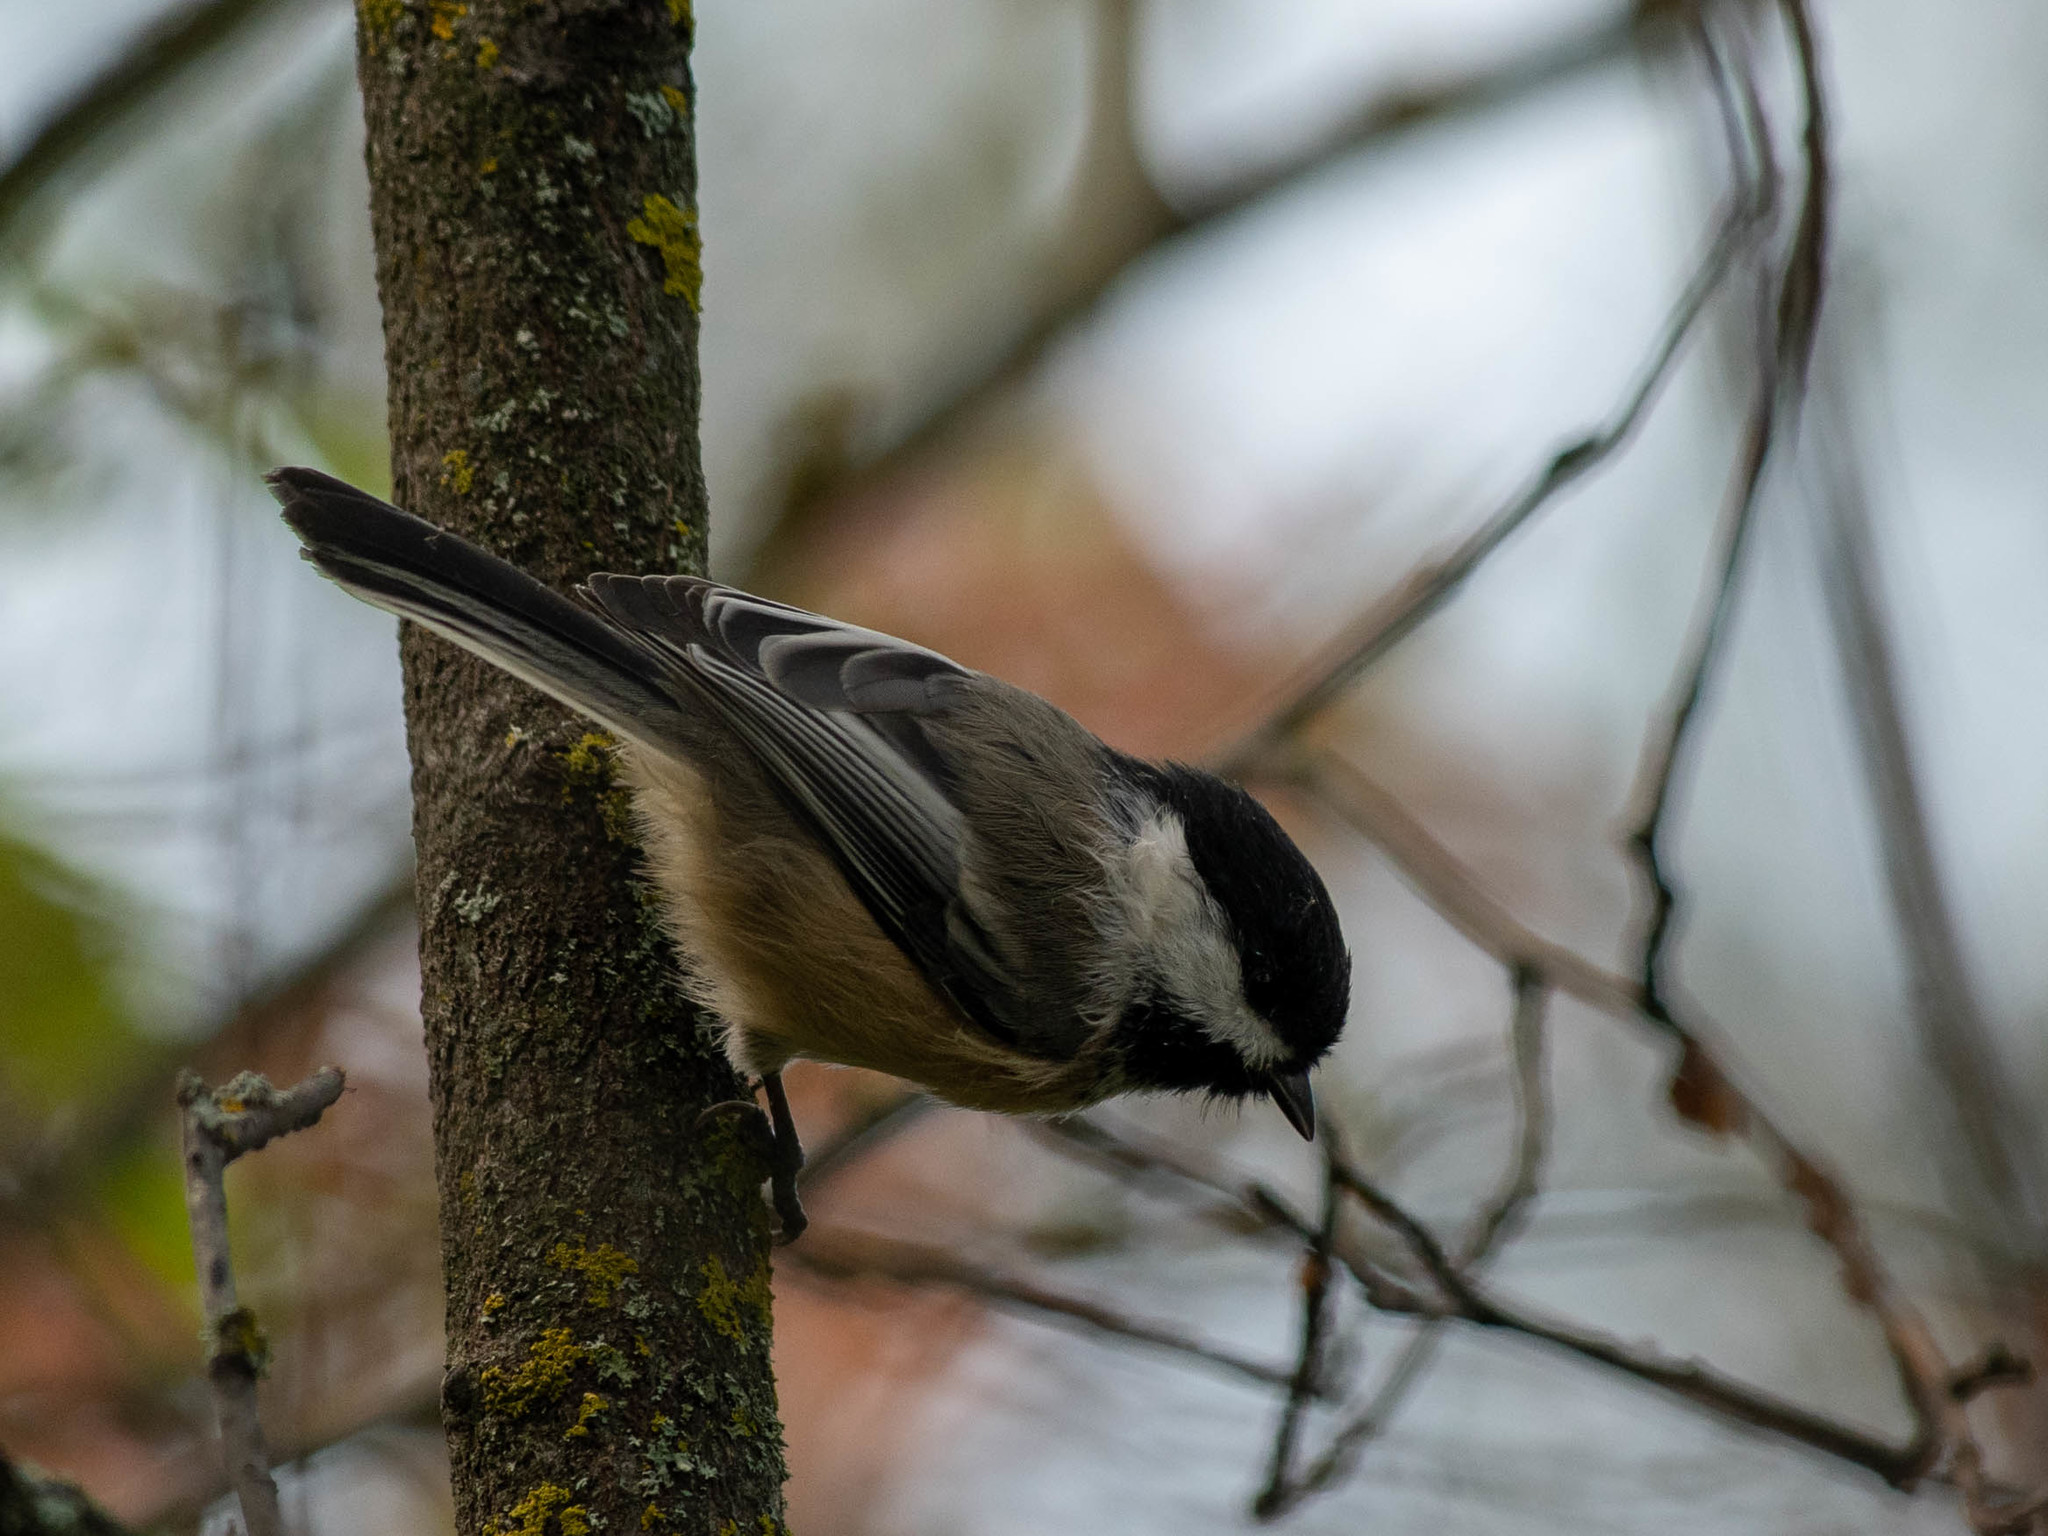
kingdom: Animalia
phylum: Chordata
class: Aves
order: Passeriformes
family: Paridae
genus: Poecile
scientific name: Poecile atricapillus
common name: Black-capped chickadee
